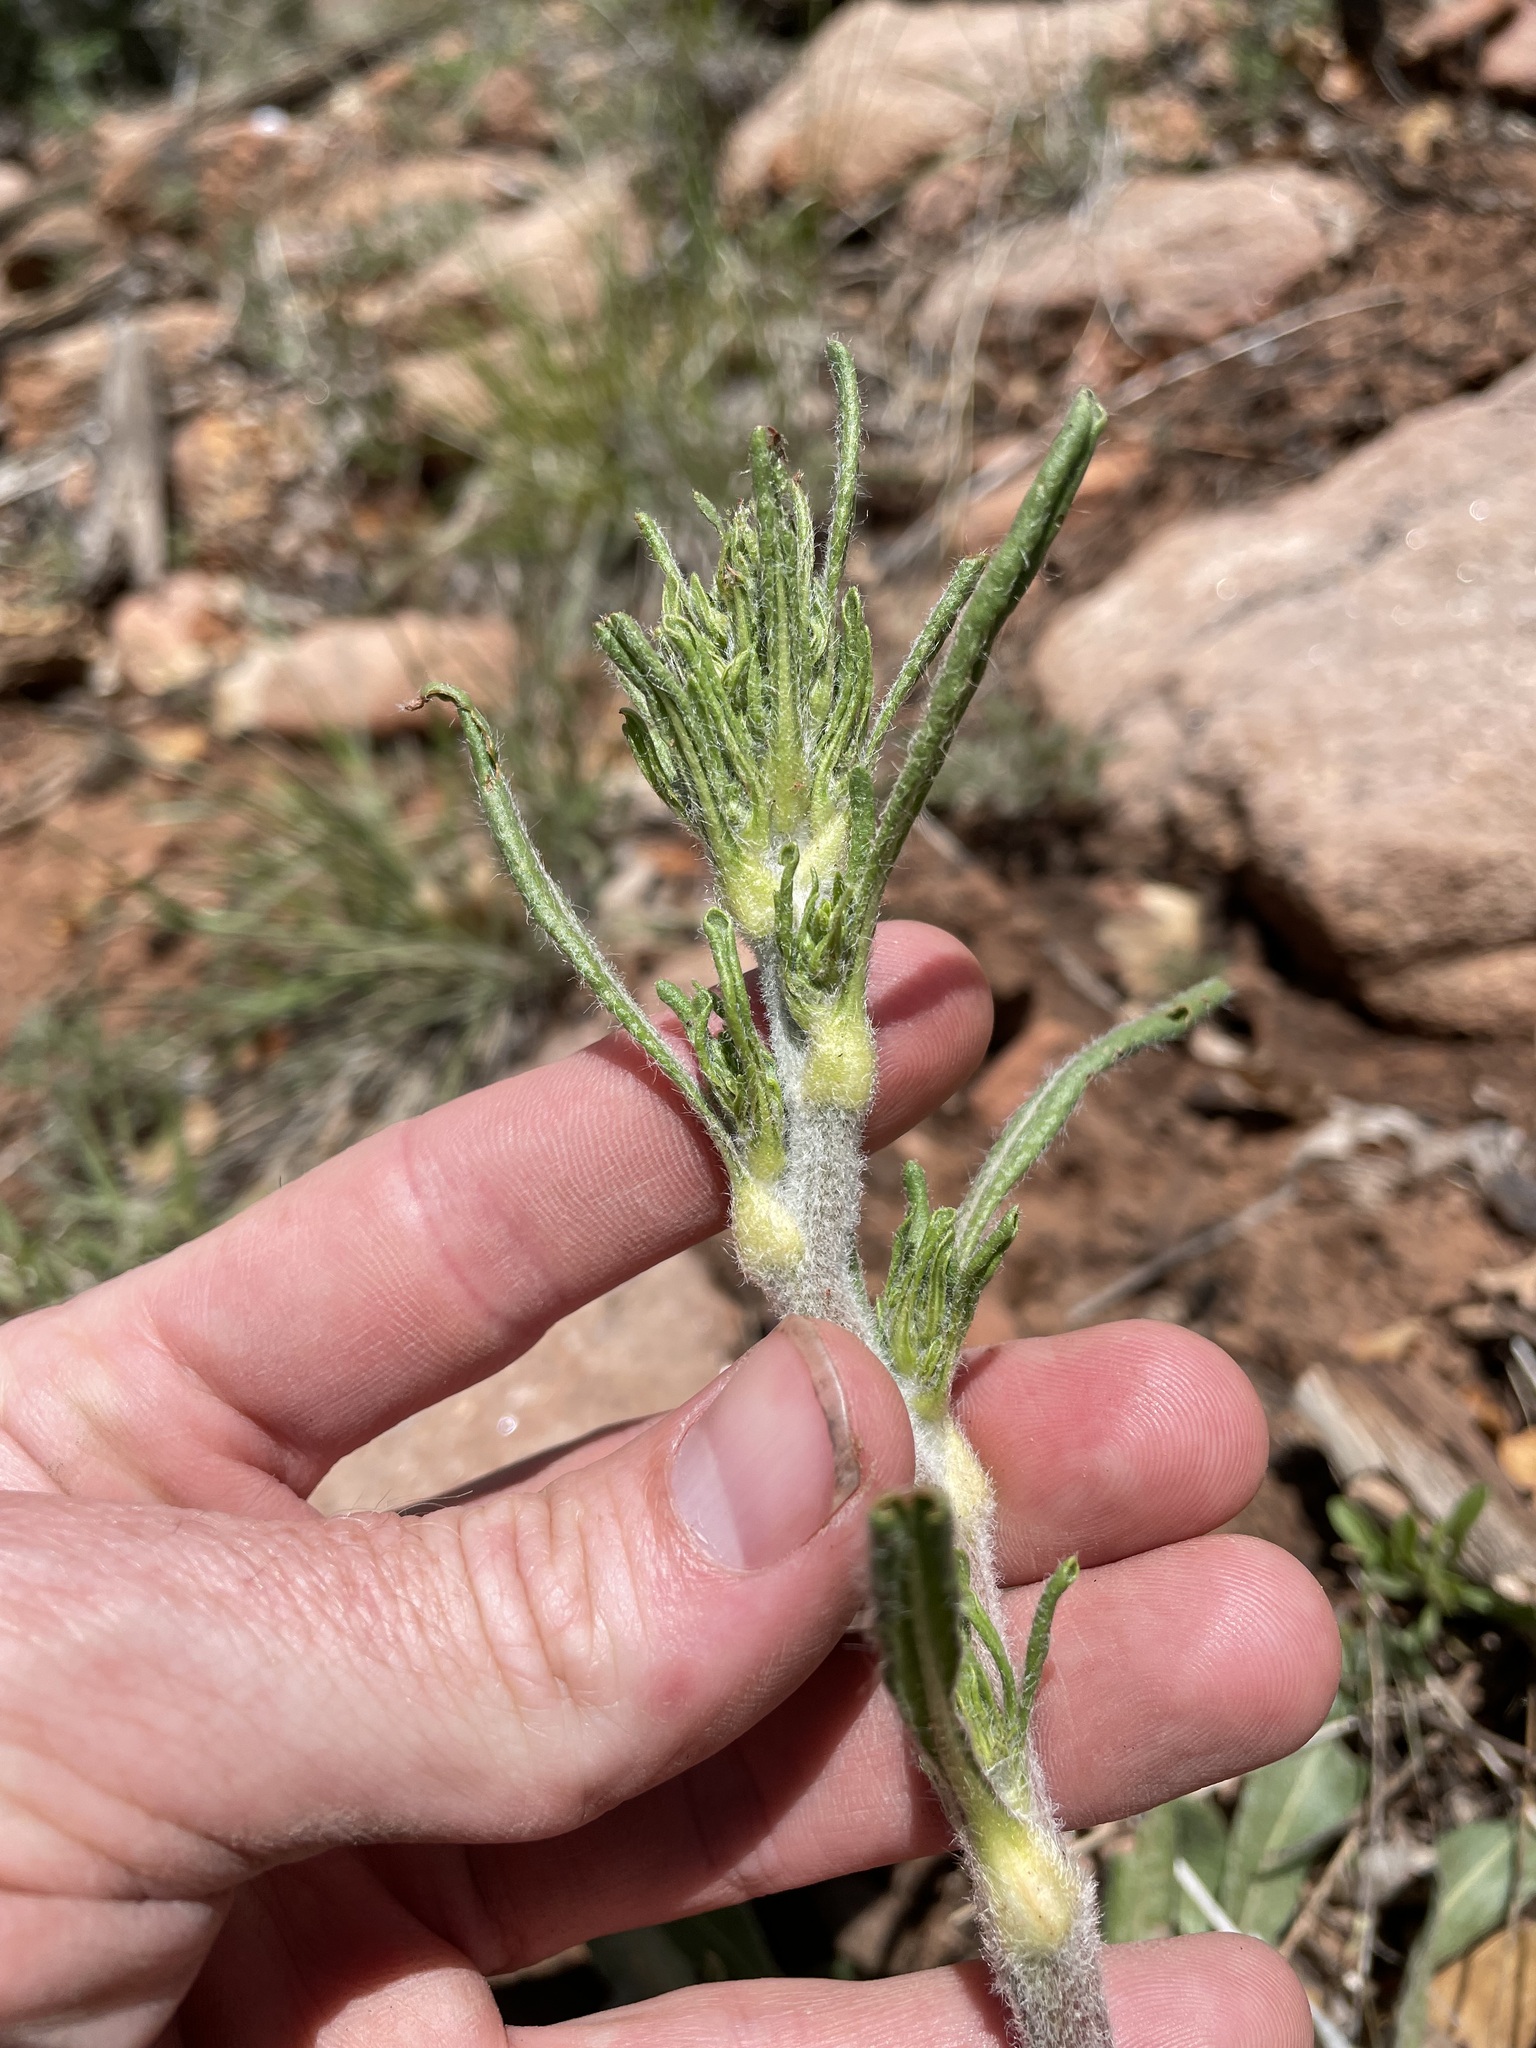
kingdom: Plantae
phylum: Tracheophyta
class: Magnoliopsida
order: Caryophyllales
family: Polygonaceae
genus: Eriogonum
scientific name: Eriogonum alatum
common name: Winged eriogonum
